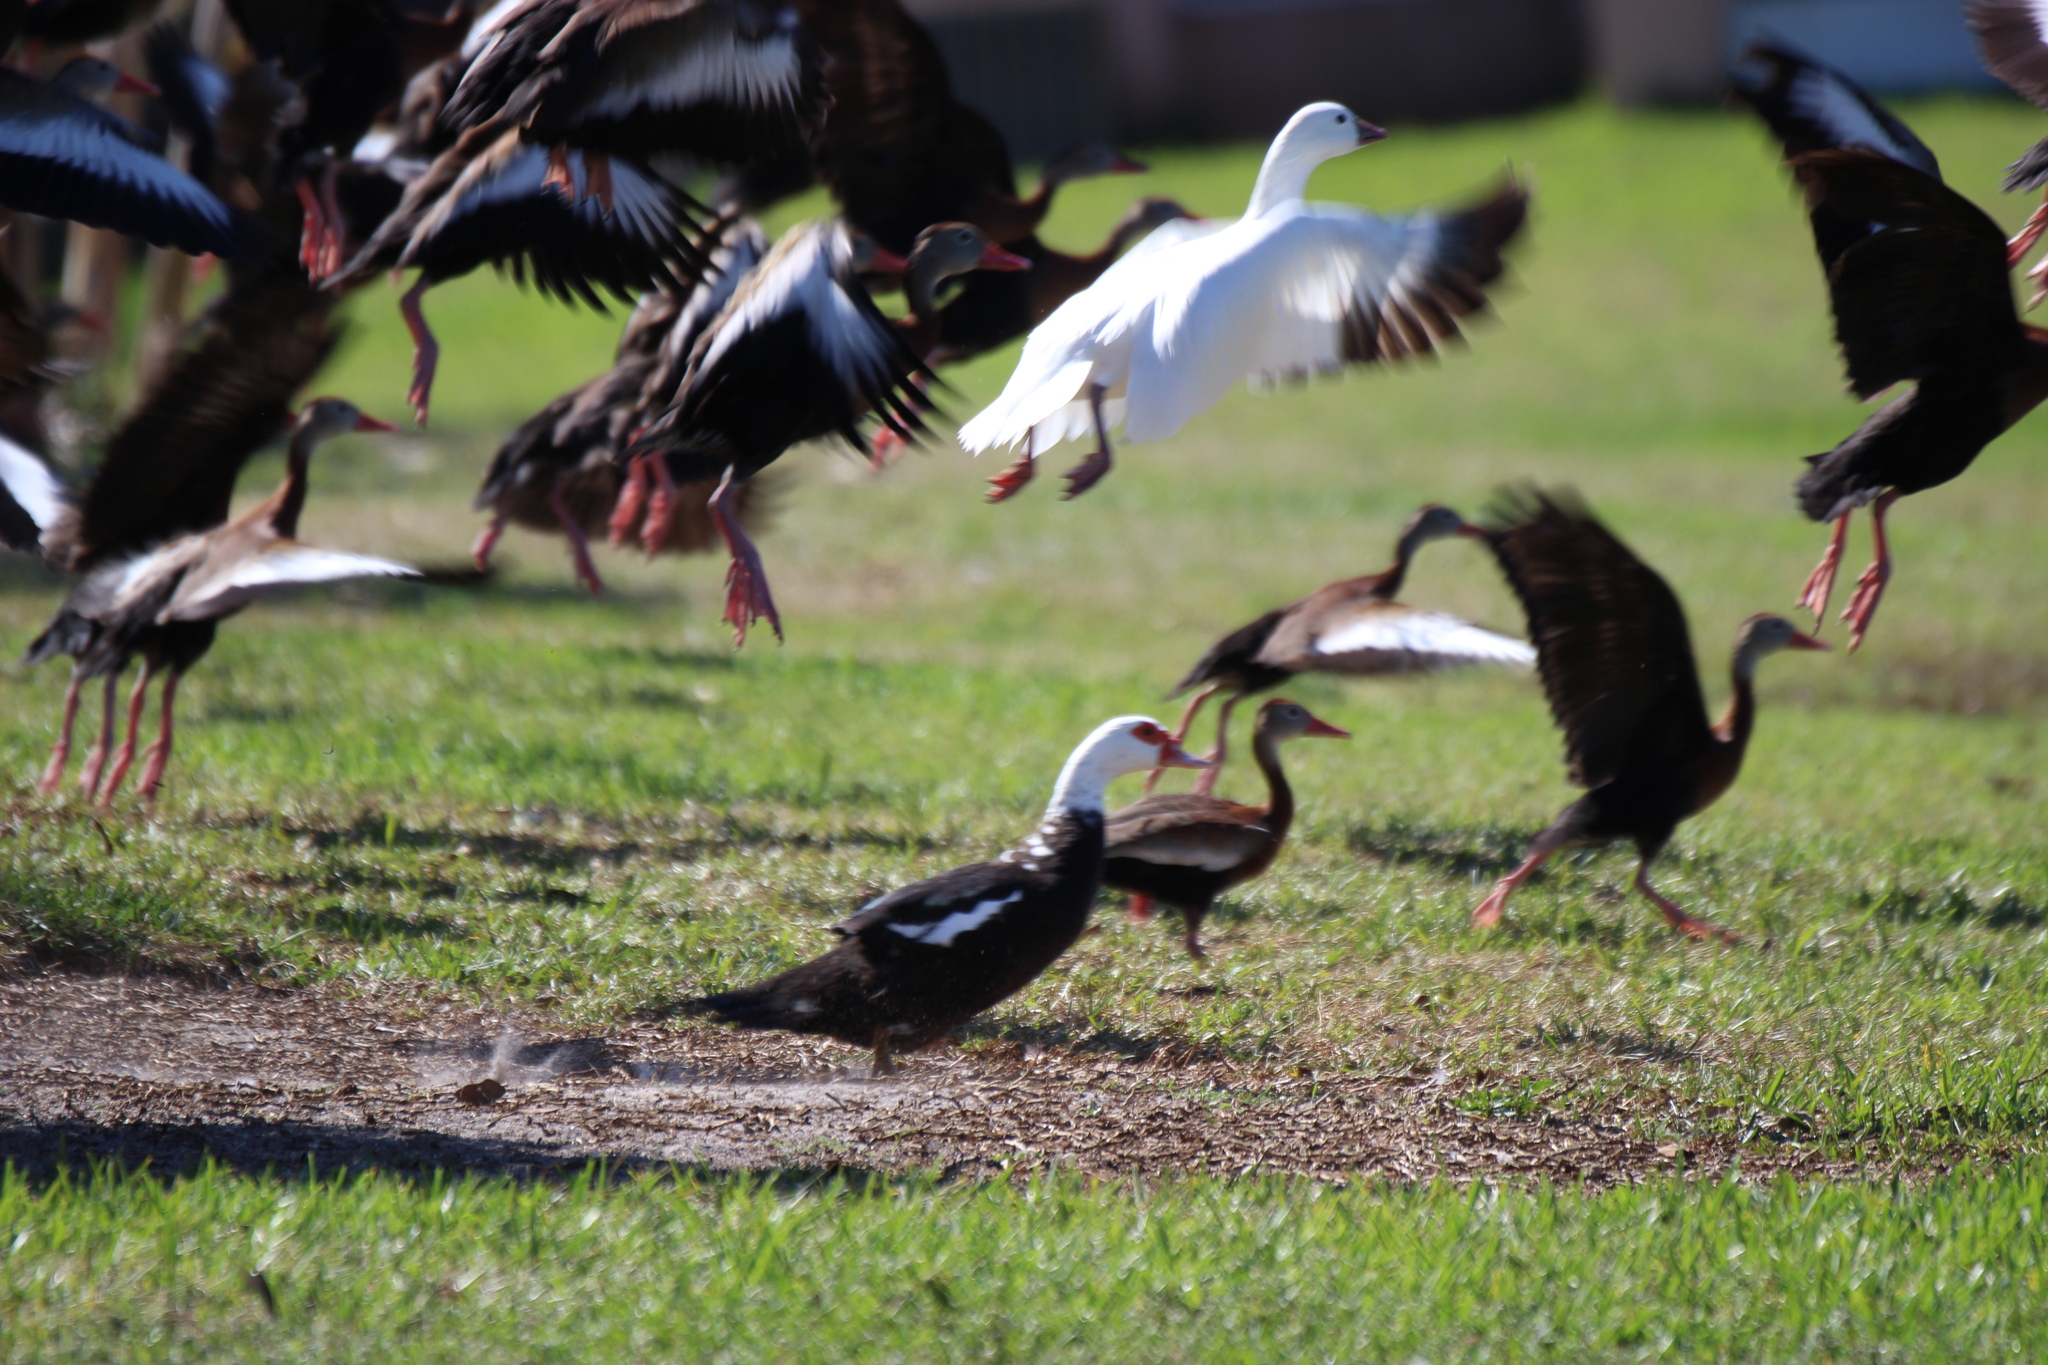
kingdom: Animalia
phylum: Chordata
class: Aves
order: Anseriformes
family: Anatidae
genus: Anser
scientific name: Anser rossii
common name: Ross's goose
